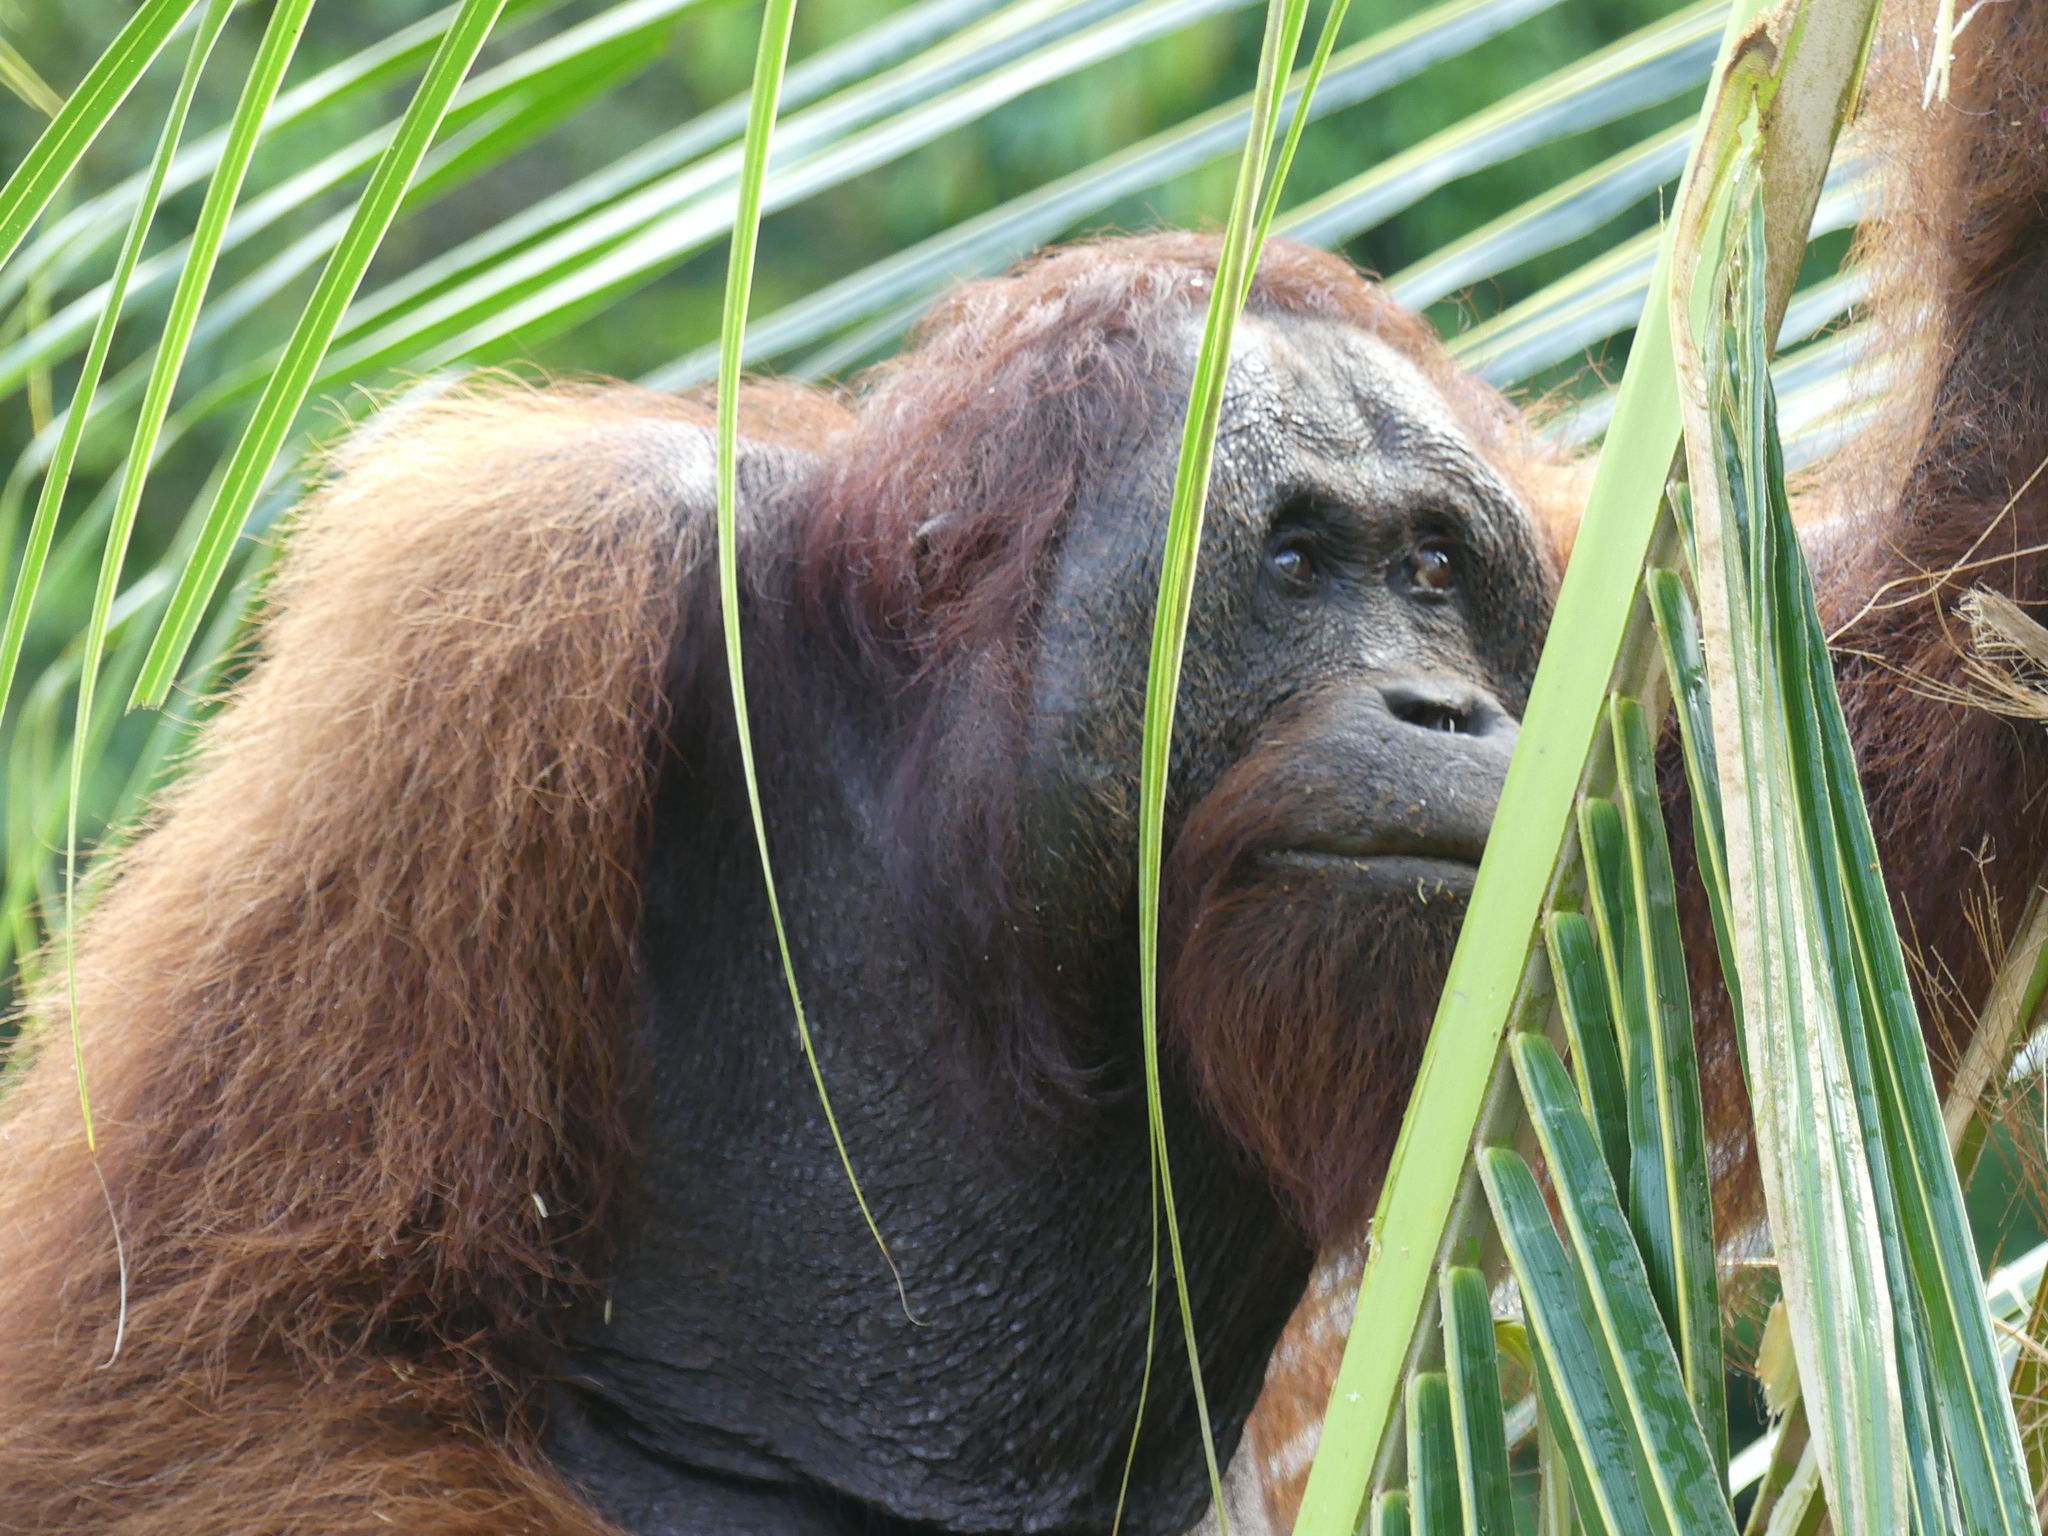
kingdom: Animalia
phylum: Chordata
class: Mammalia
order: Primates
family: Hominidae
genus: Pongo
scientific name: Pongo pygmaeus
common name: Bornean orangutan
